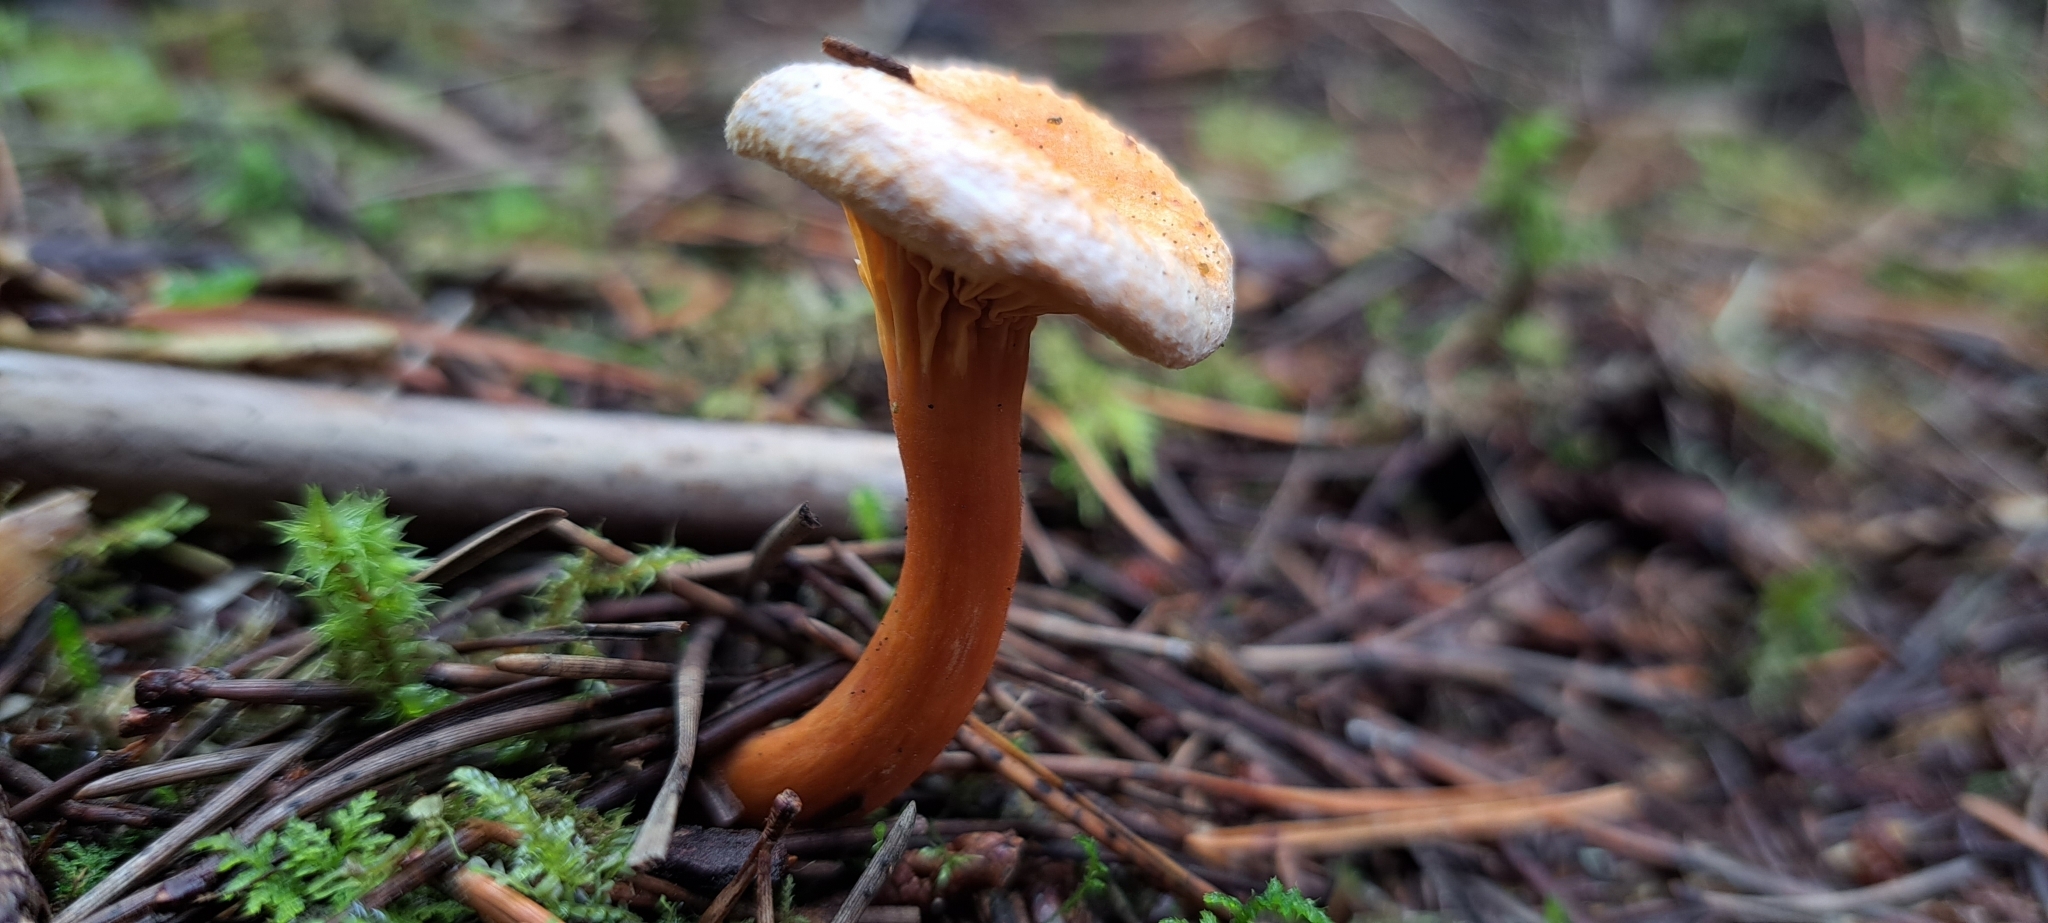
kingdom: Fungi
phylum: Basidiomycota
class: Agaricomycetes
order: Boletales
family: Hygrophoropsidaceae
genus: Hygrophoropsis
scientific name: Hygrophoropsis aurantiaca
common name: False chanterelle
